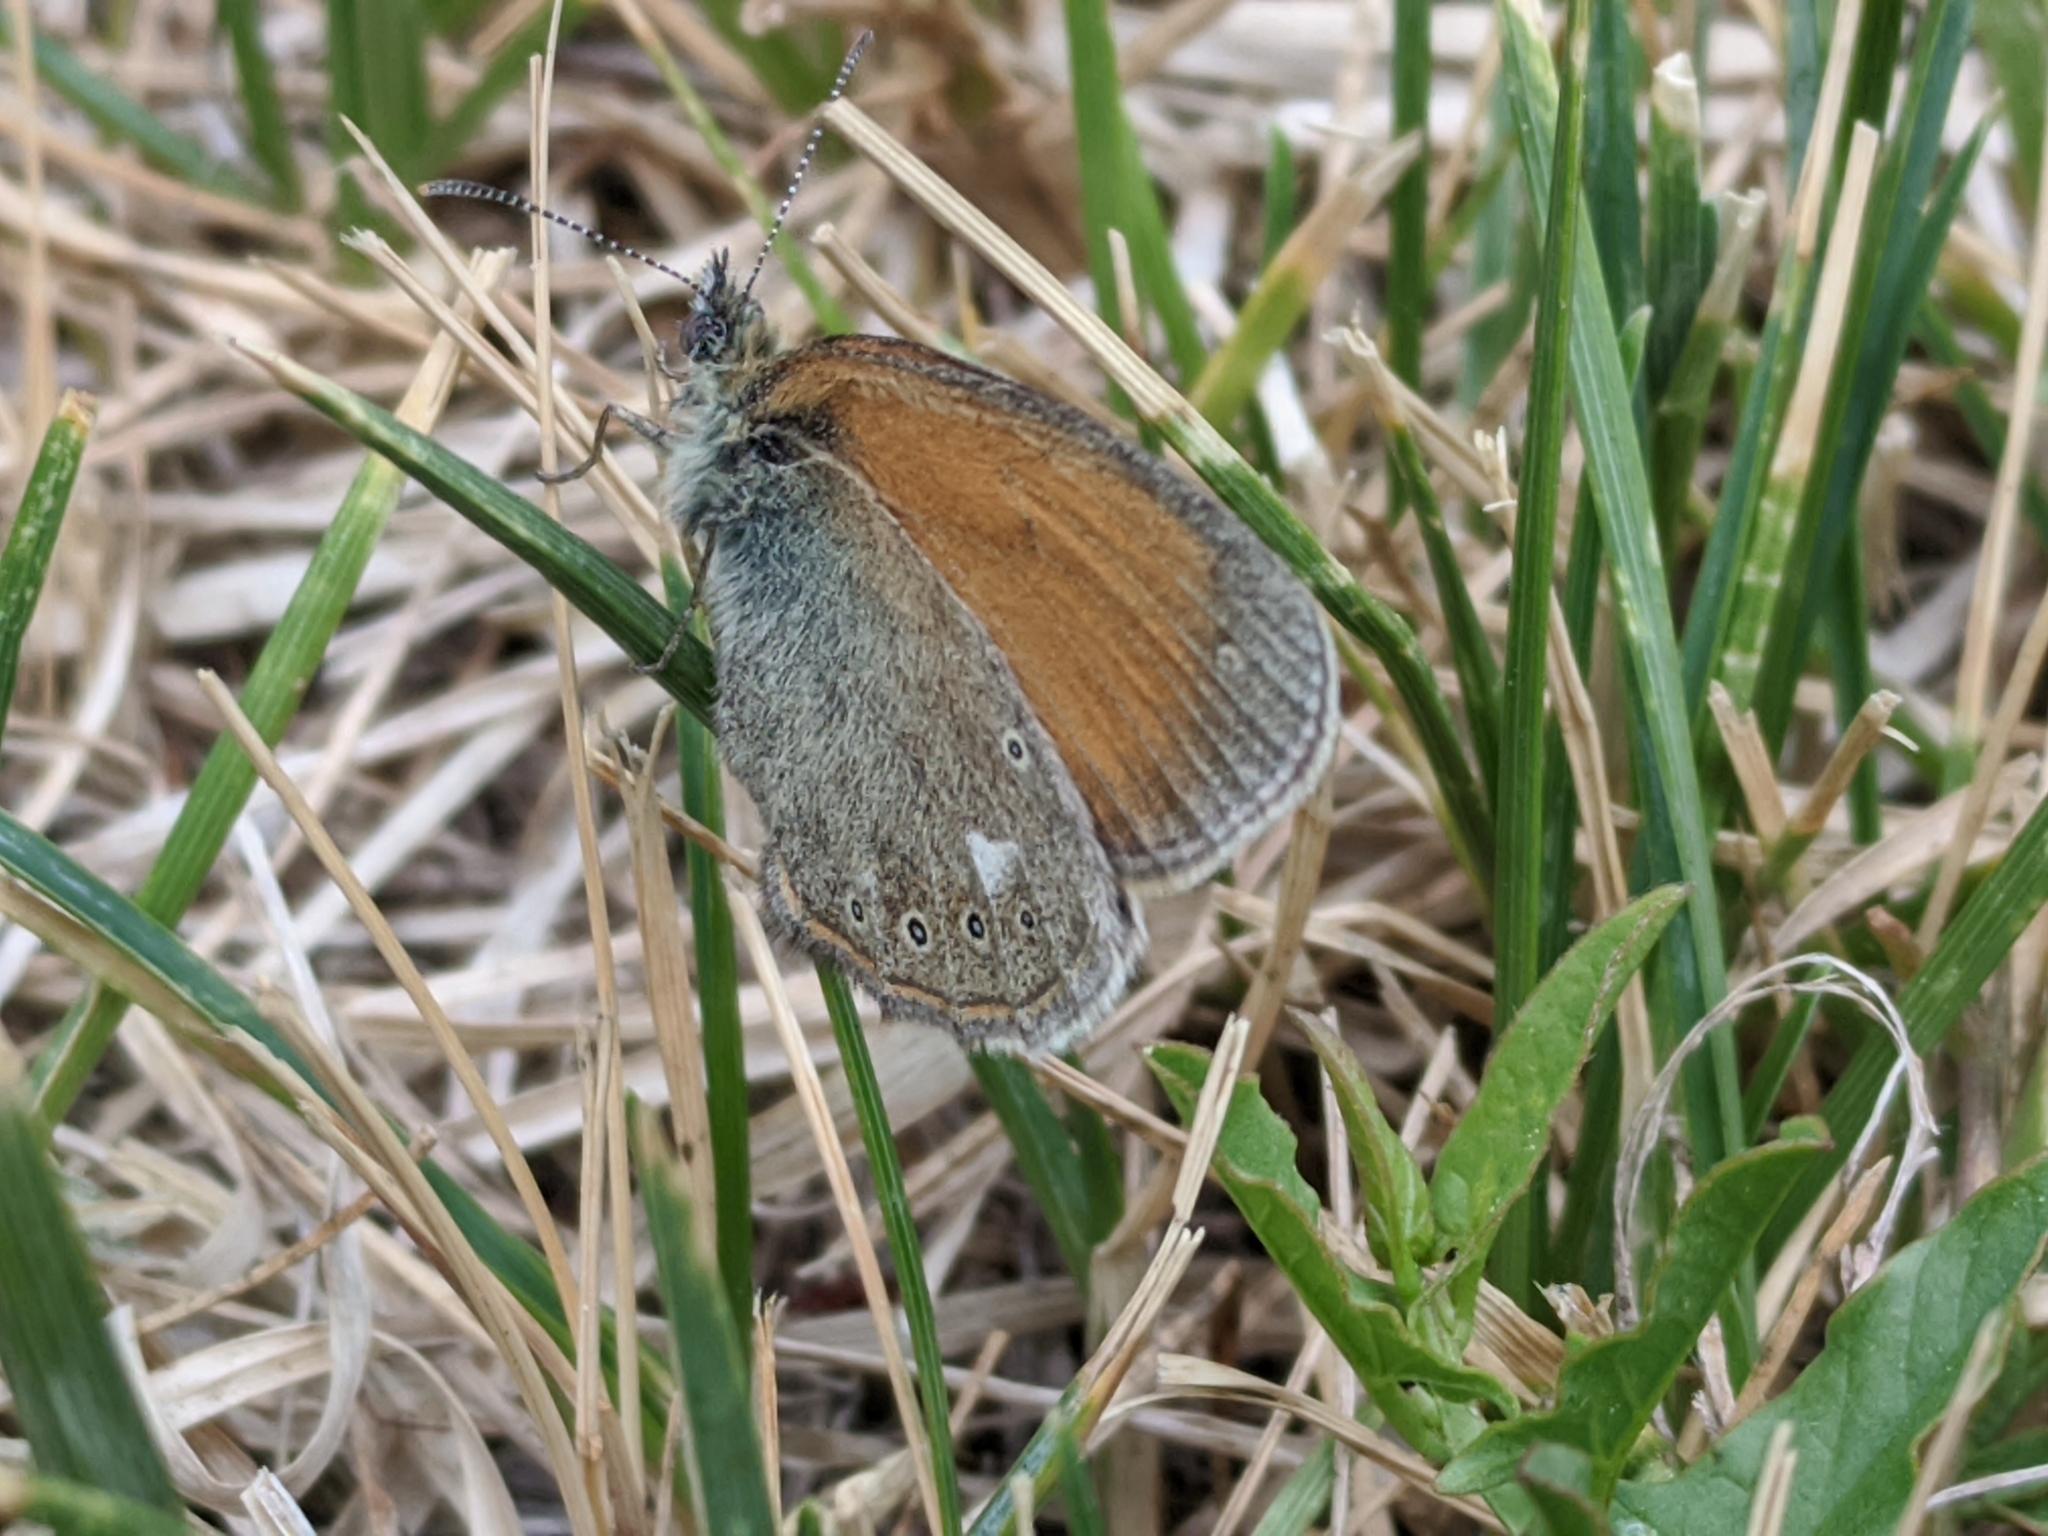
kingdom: Animalia
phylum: Arthropoda
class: Insecta
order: Lepidoptera
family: Nymphalidae
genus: Coenonympha
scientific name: Coenonympha iphis
